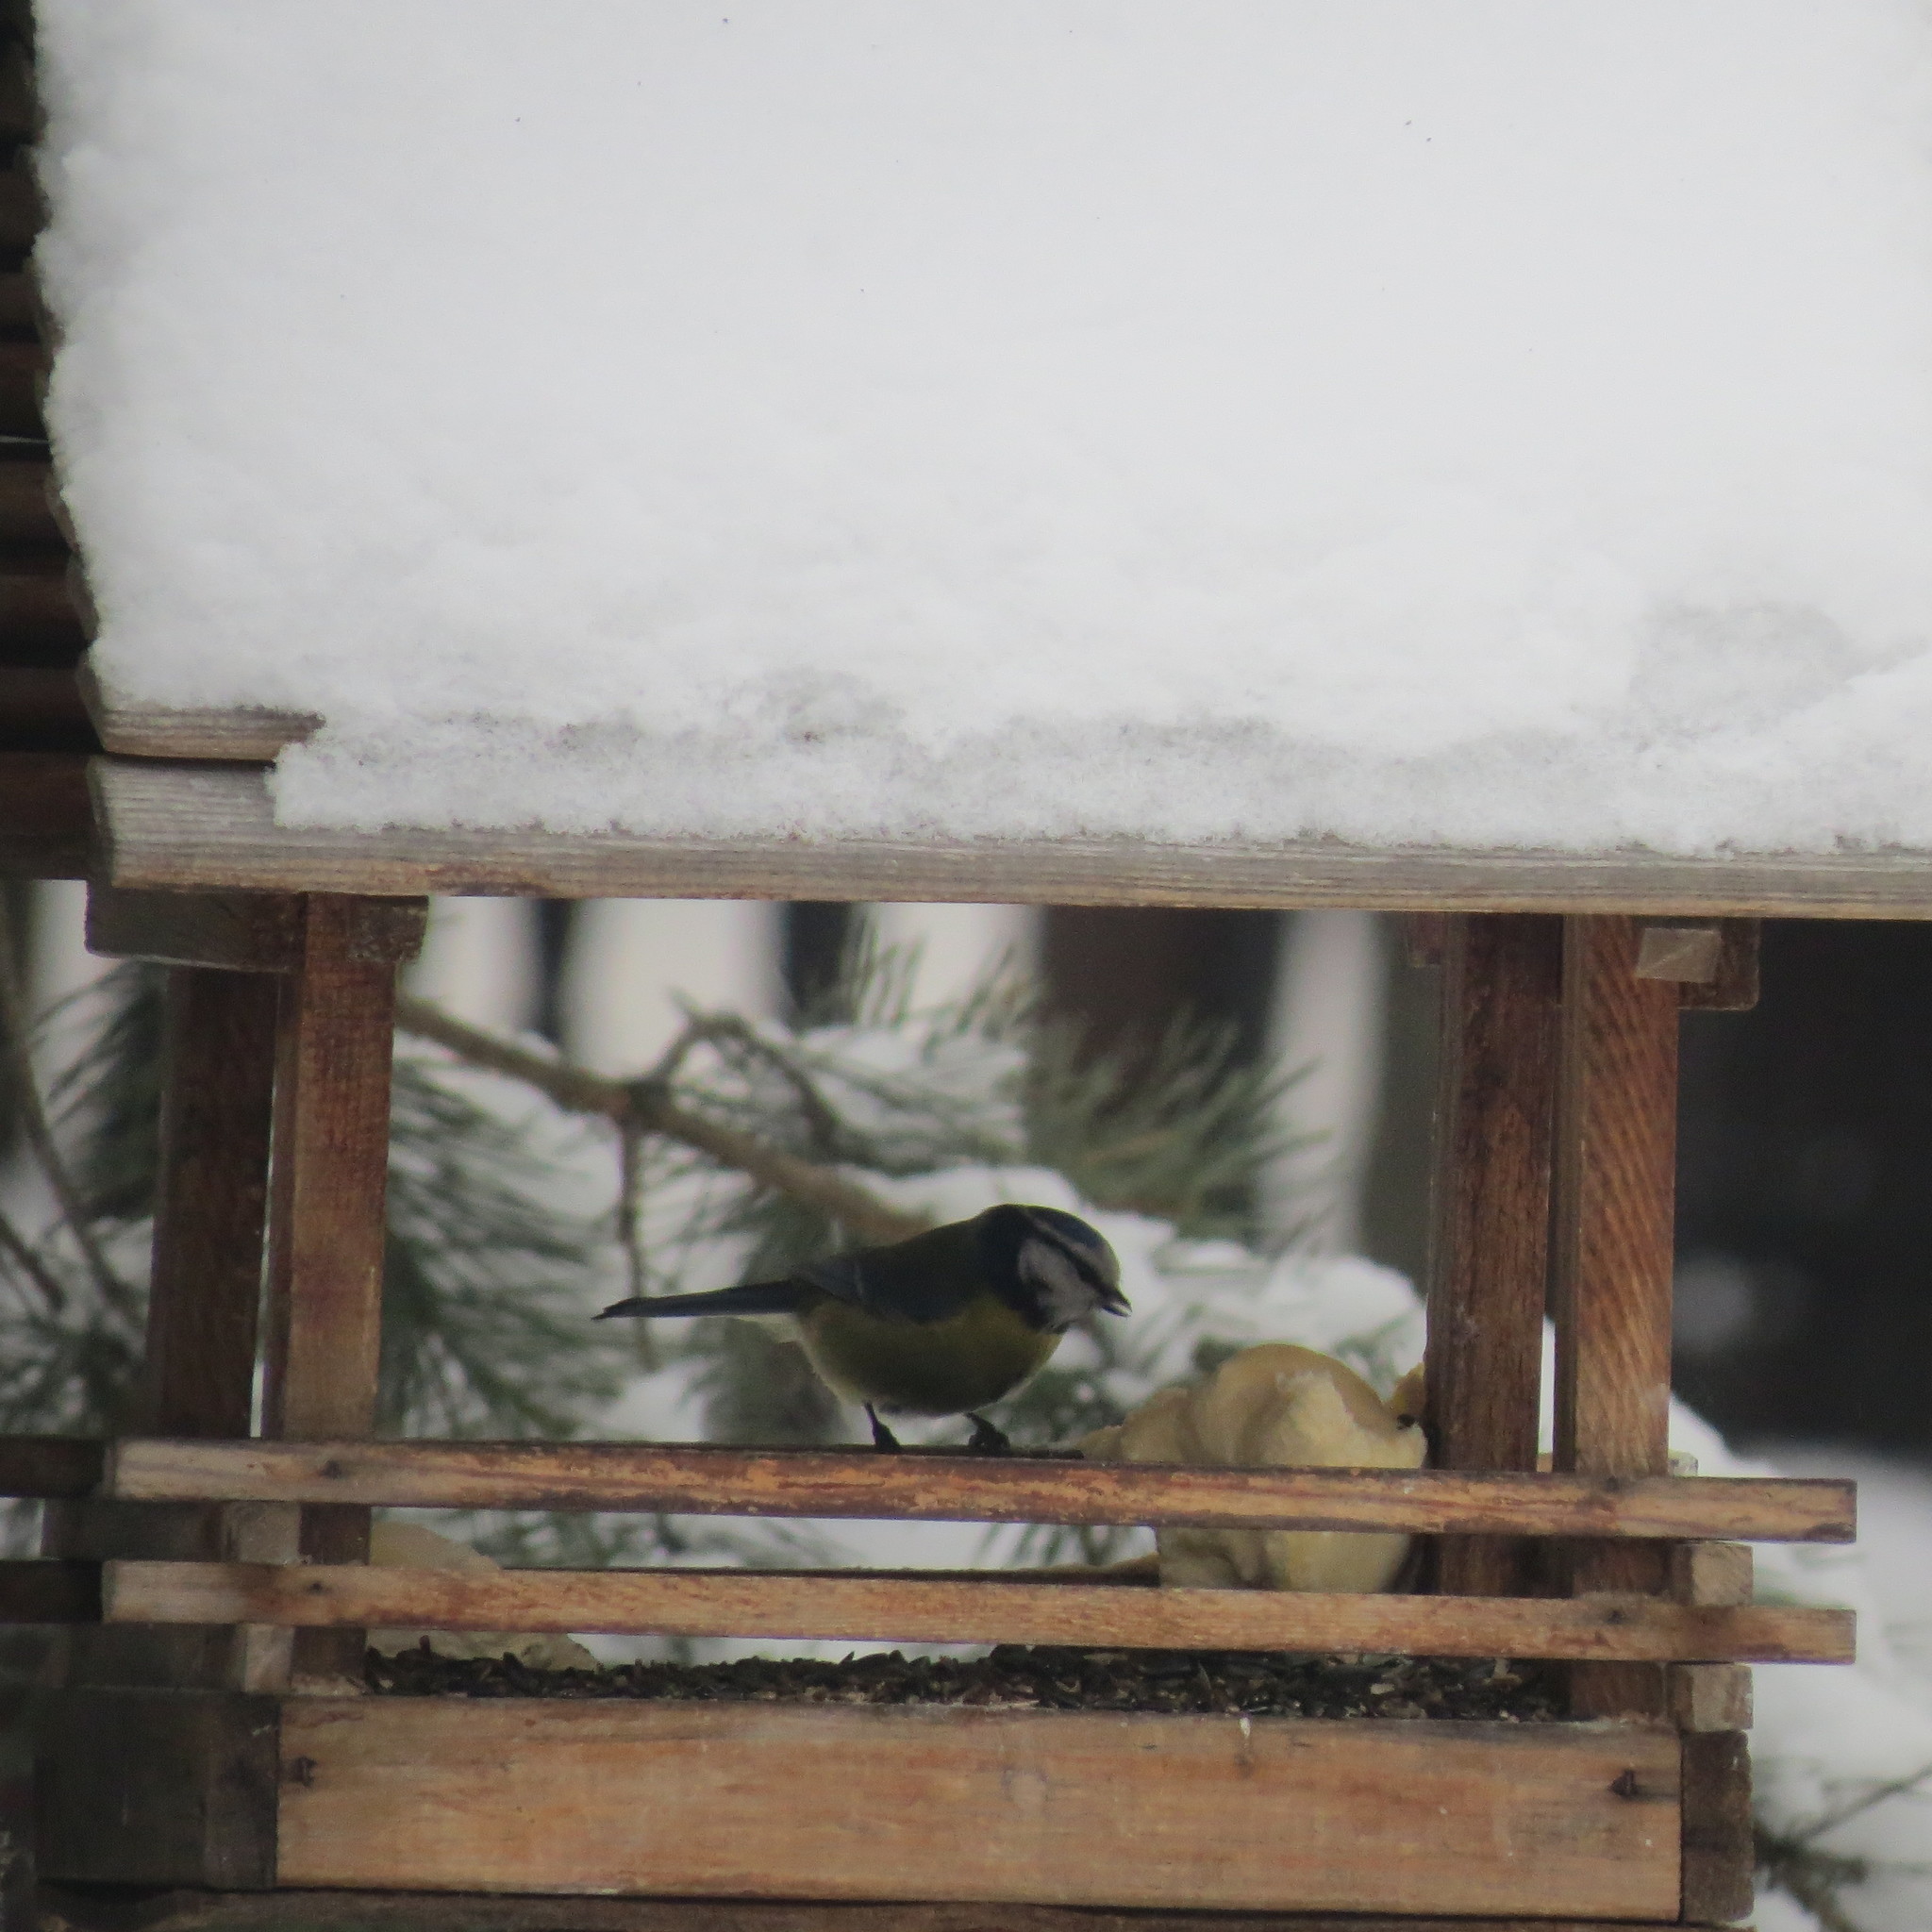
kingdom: Animalia
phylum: Chordata
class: Aves
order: Passeriformes
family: Paridae
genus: Cyanistes
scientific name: Cyanistes caeruleus
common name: Eurasian blue tit
